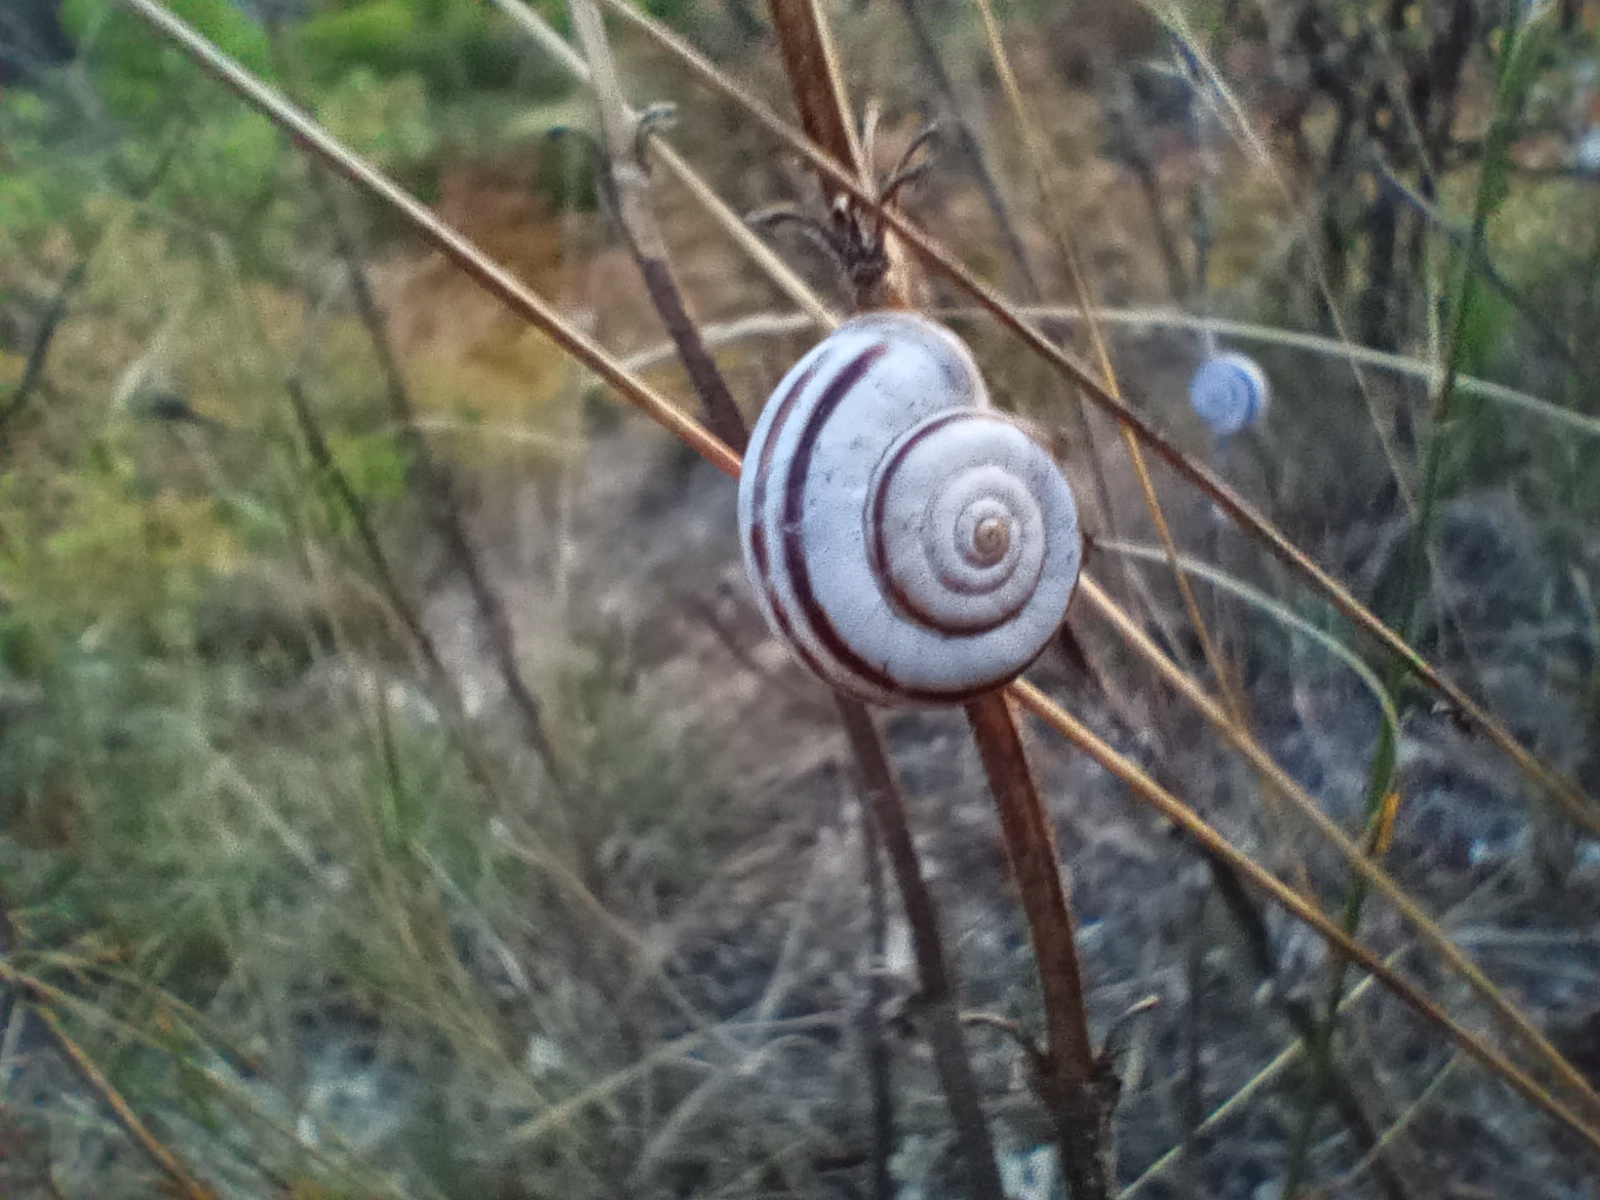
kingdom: Animalia
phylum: Mollusca
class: Gastropoda
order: Stylommatophora
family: Geomitridae
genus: Xerolenta
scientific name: Xerolenta obvia
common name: White heath snail
